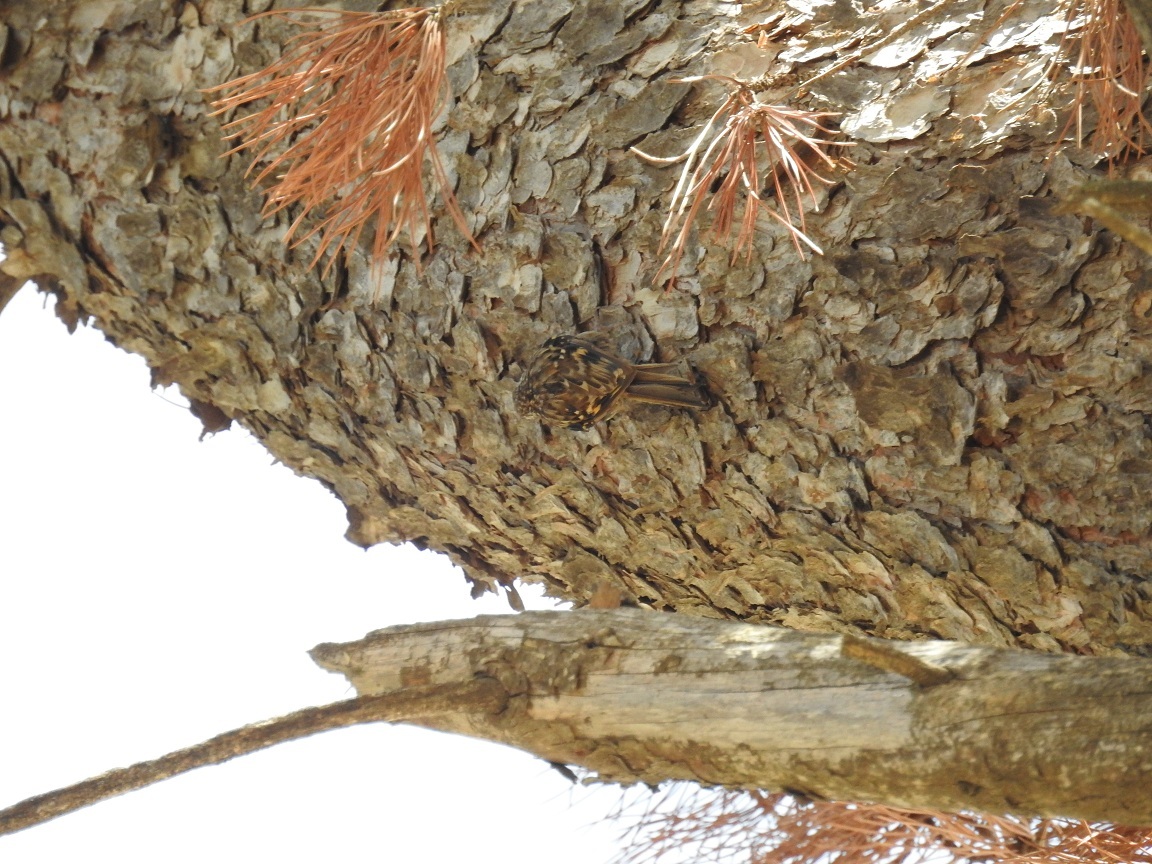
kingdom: Animalia
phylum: Chordata
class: Aves
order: Passeriformes
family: Certhiidae
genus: Certhia
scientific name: Certhia brachydactyla
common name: Short-toed treecreeper
